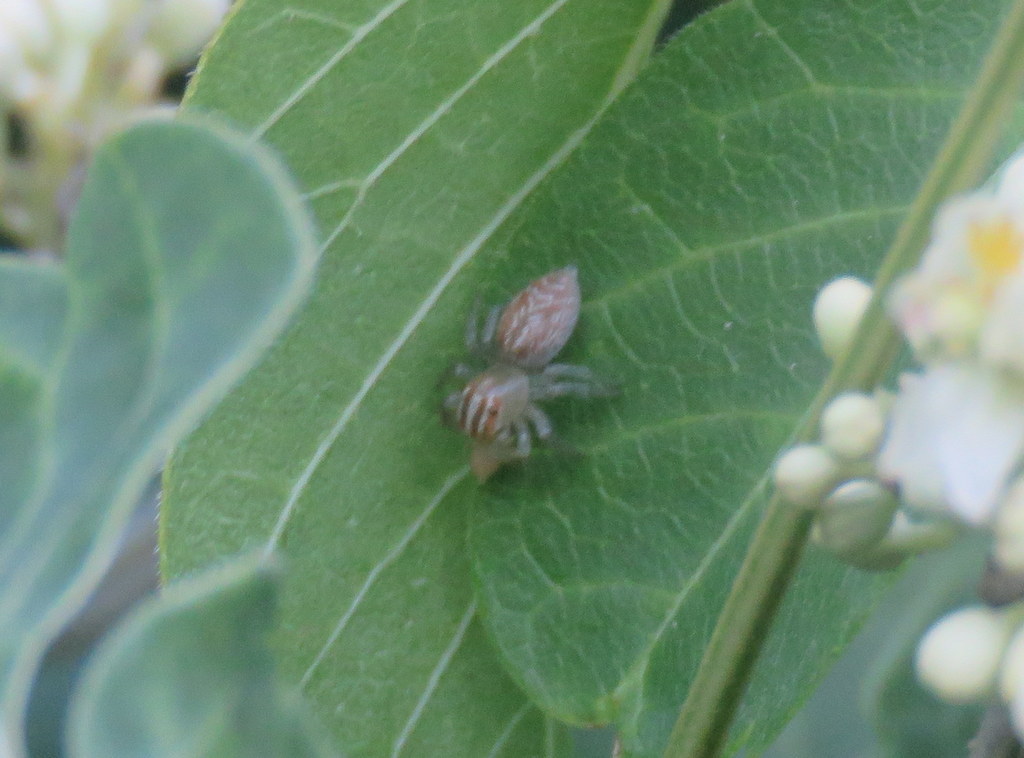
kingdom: Animalia
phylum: Arthropoda
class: Arachnida
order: Araneae
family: Salticidae
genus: Chira
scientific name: Chira gounellei
